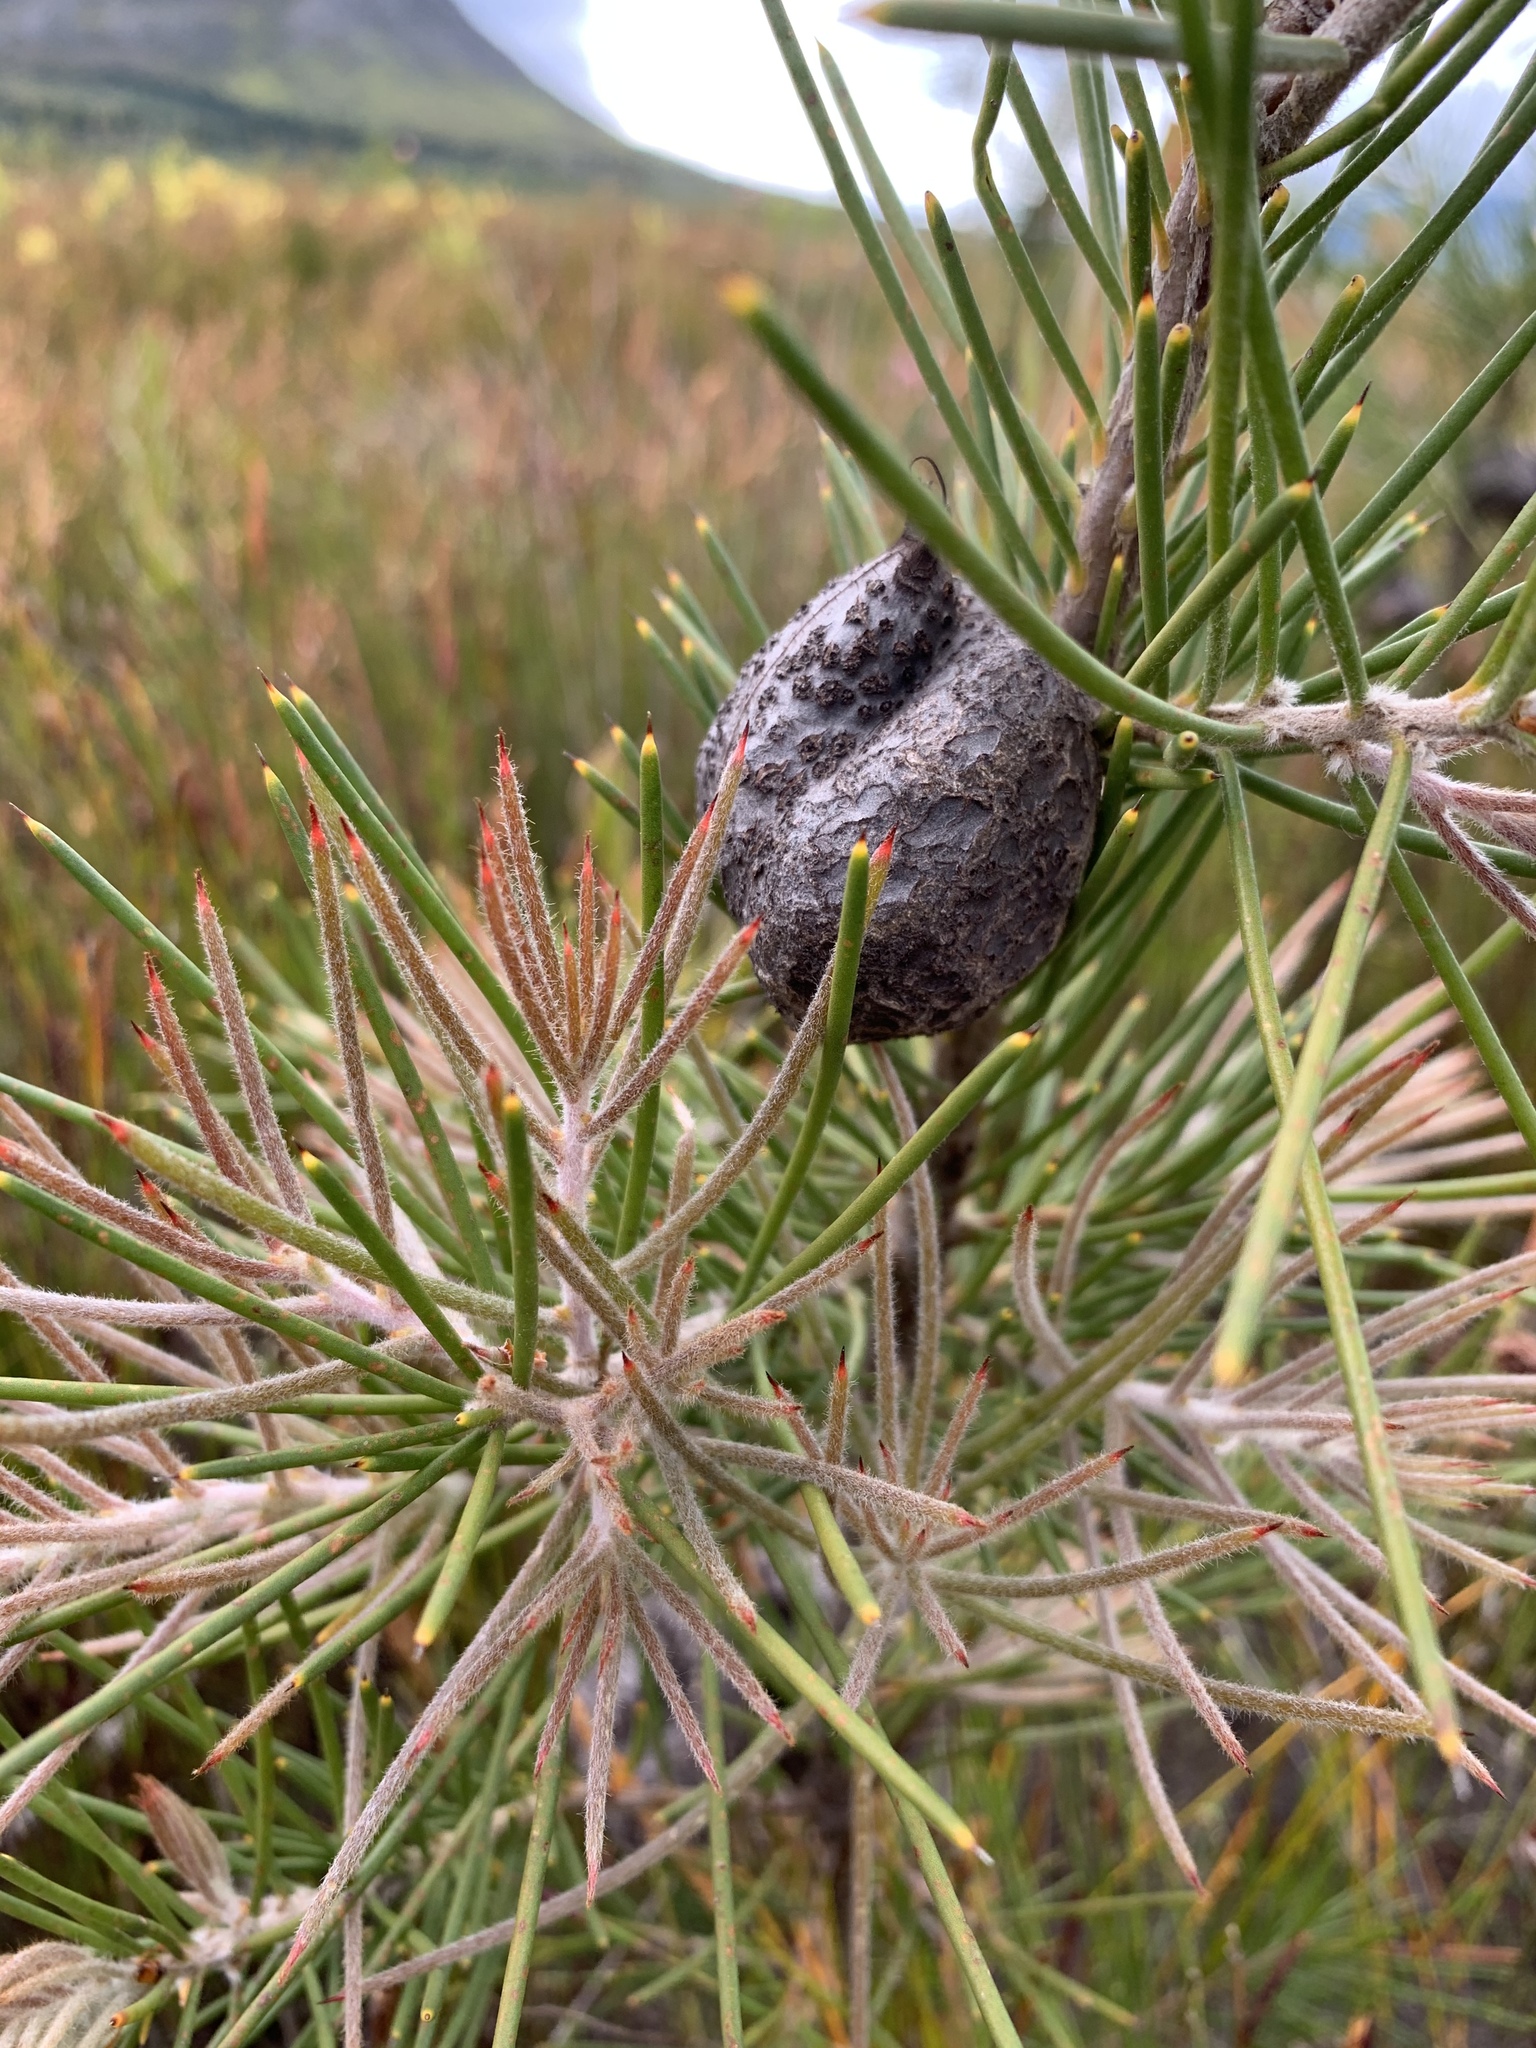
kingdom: Plantae
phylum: Tracheophyta
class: Magnoliopsida
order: Proteales
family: Proteaceae
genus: Hakea
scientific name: Hakea gibbosa
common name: Rock hakea
